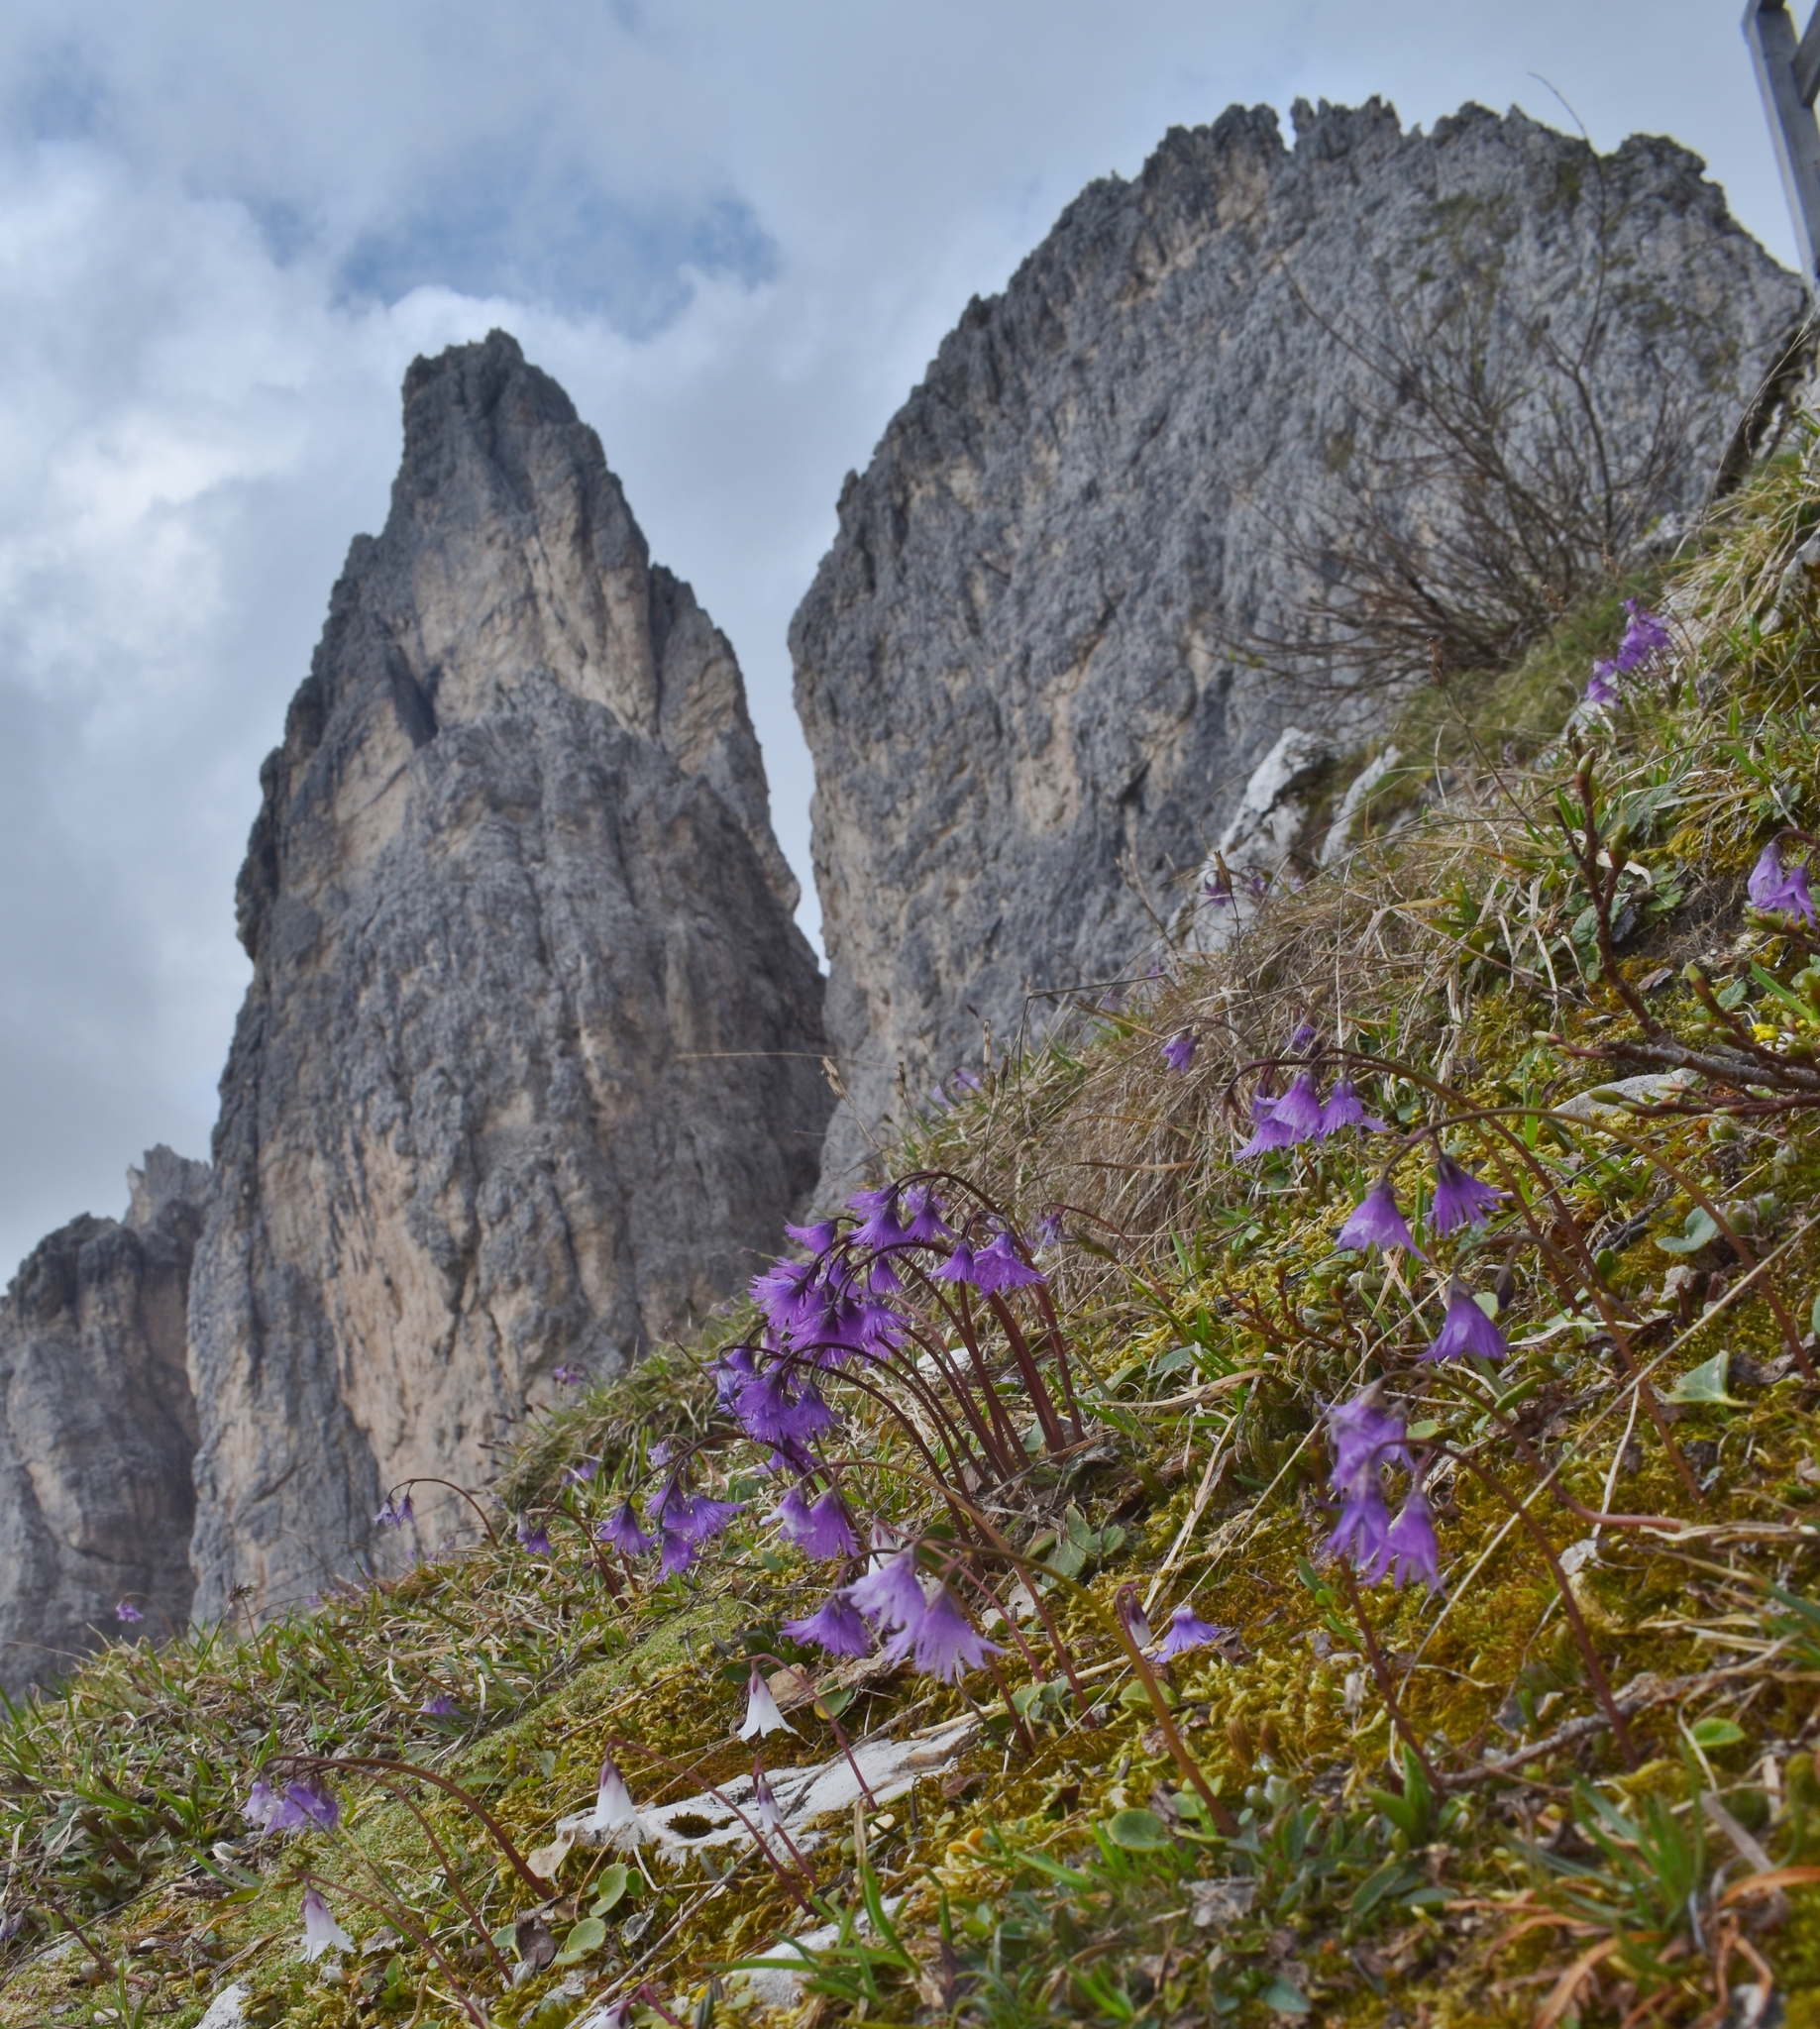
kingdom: Plantae
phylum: Tracheophyta
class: Magnoliopsida
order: Ericales
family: Primulaceae
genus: Soldanella
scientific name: Soldanella alpina
